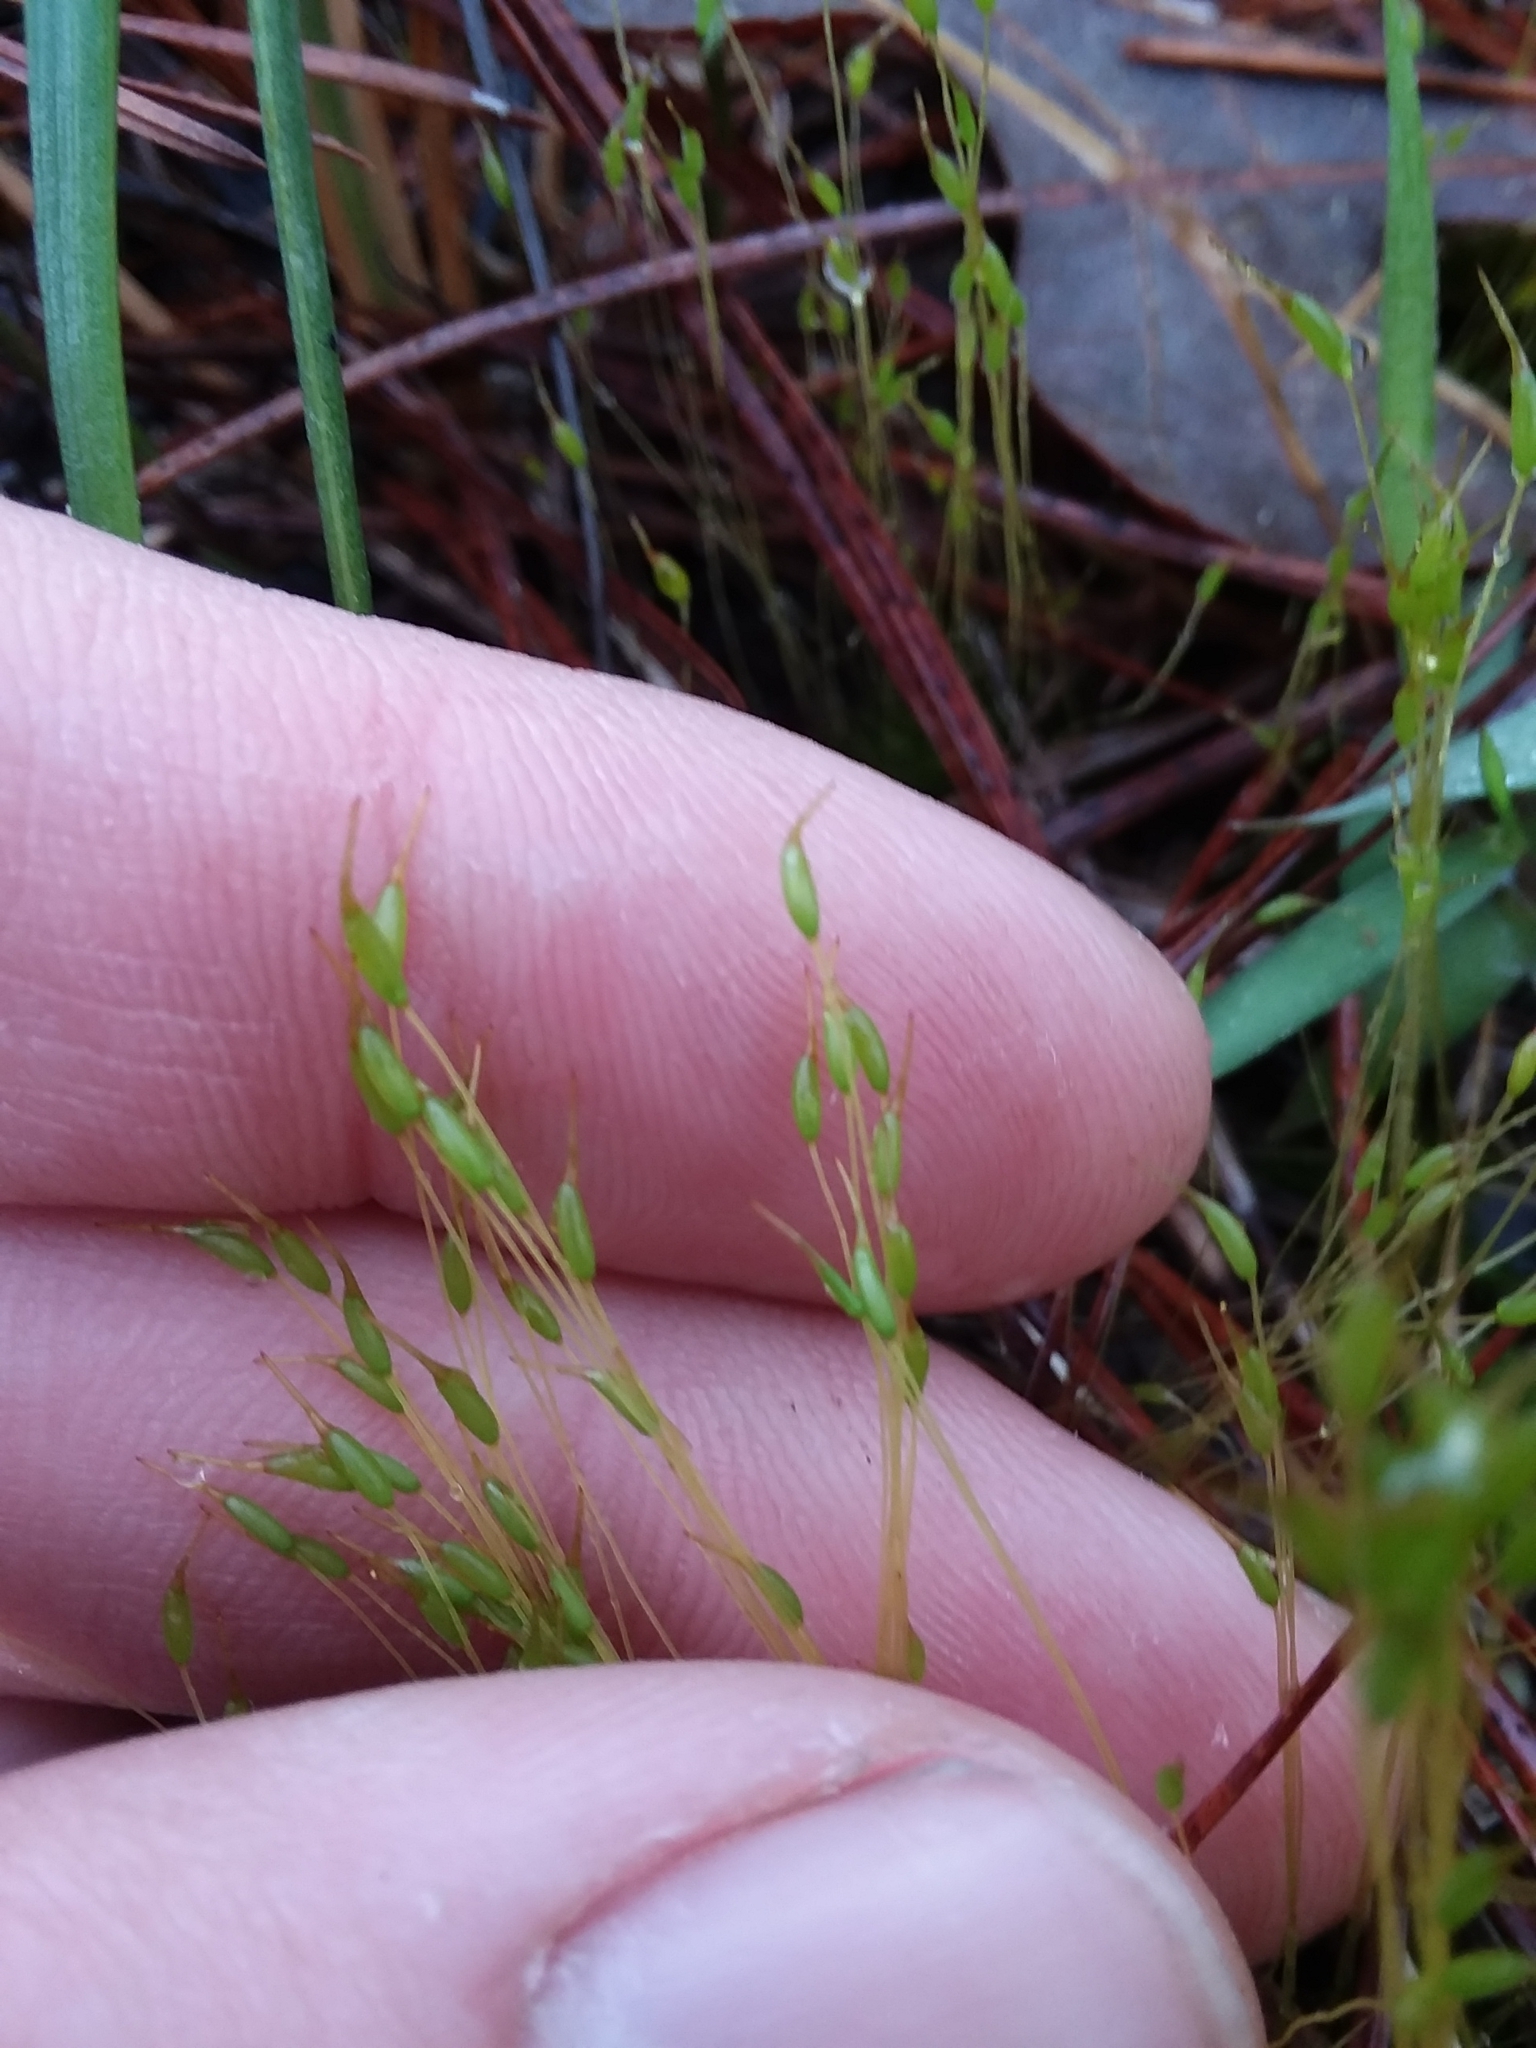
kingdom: Plantae
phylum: Bryophyta
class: Bryopsida
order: Dicranales
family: Ditrichaceae
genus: Ditrichum
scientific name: Ditrichum pallidum
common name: Pale cow-hair moss
